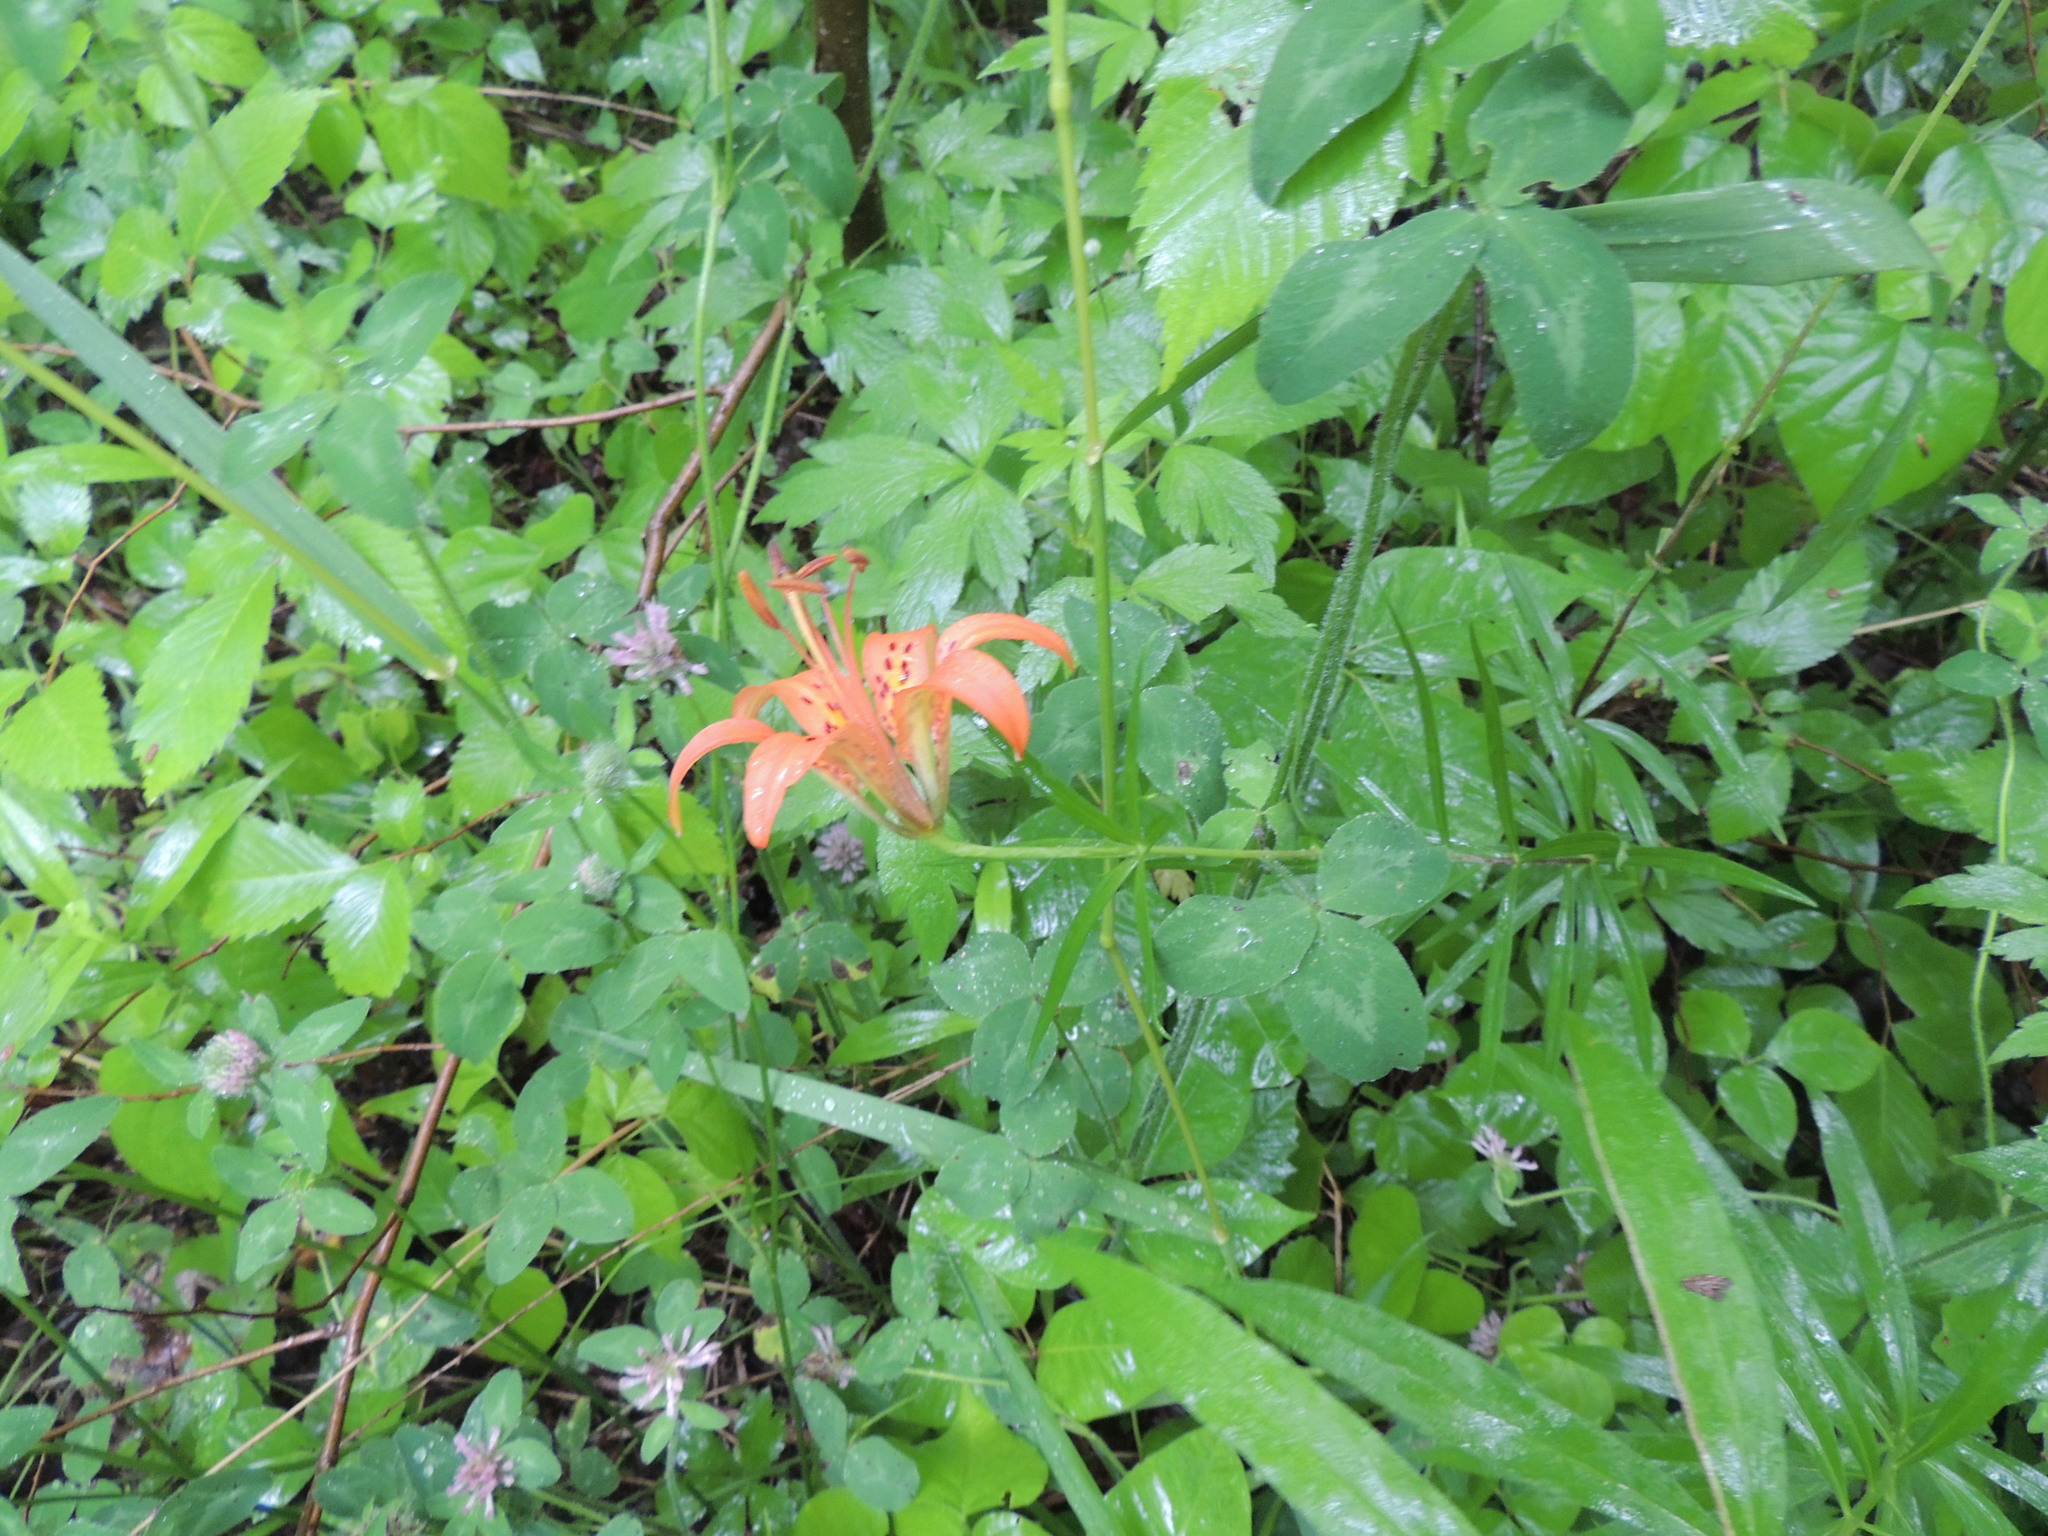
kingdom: Plantae
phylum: Tracheophyta
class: Liliopsida
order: Liliales
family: Liliaceae
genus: Lilium
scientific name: Lilium philadelphicum
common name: Red lily
